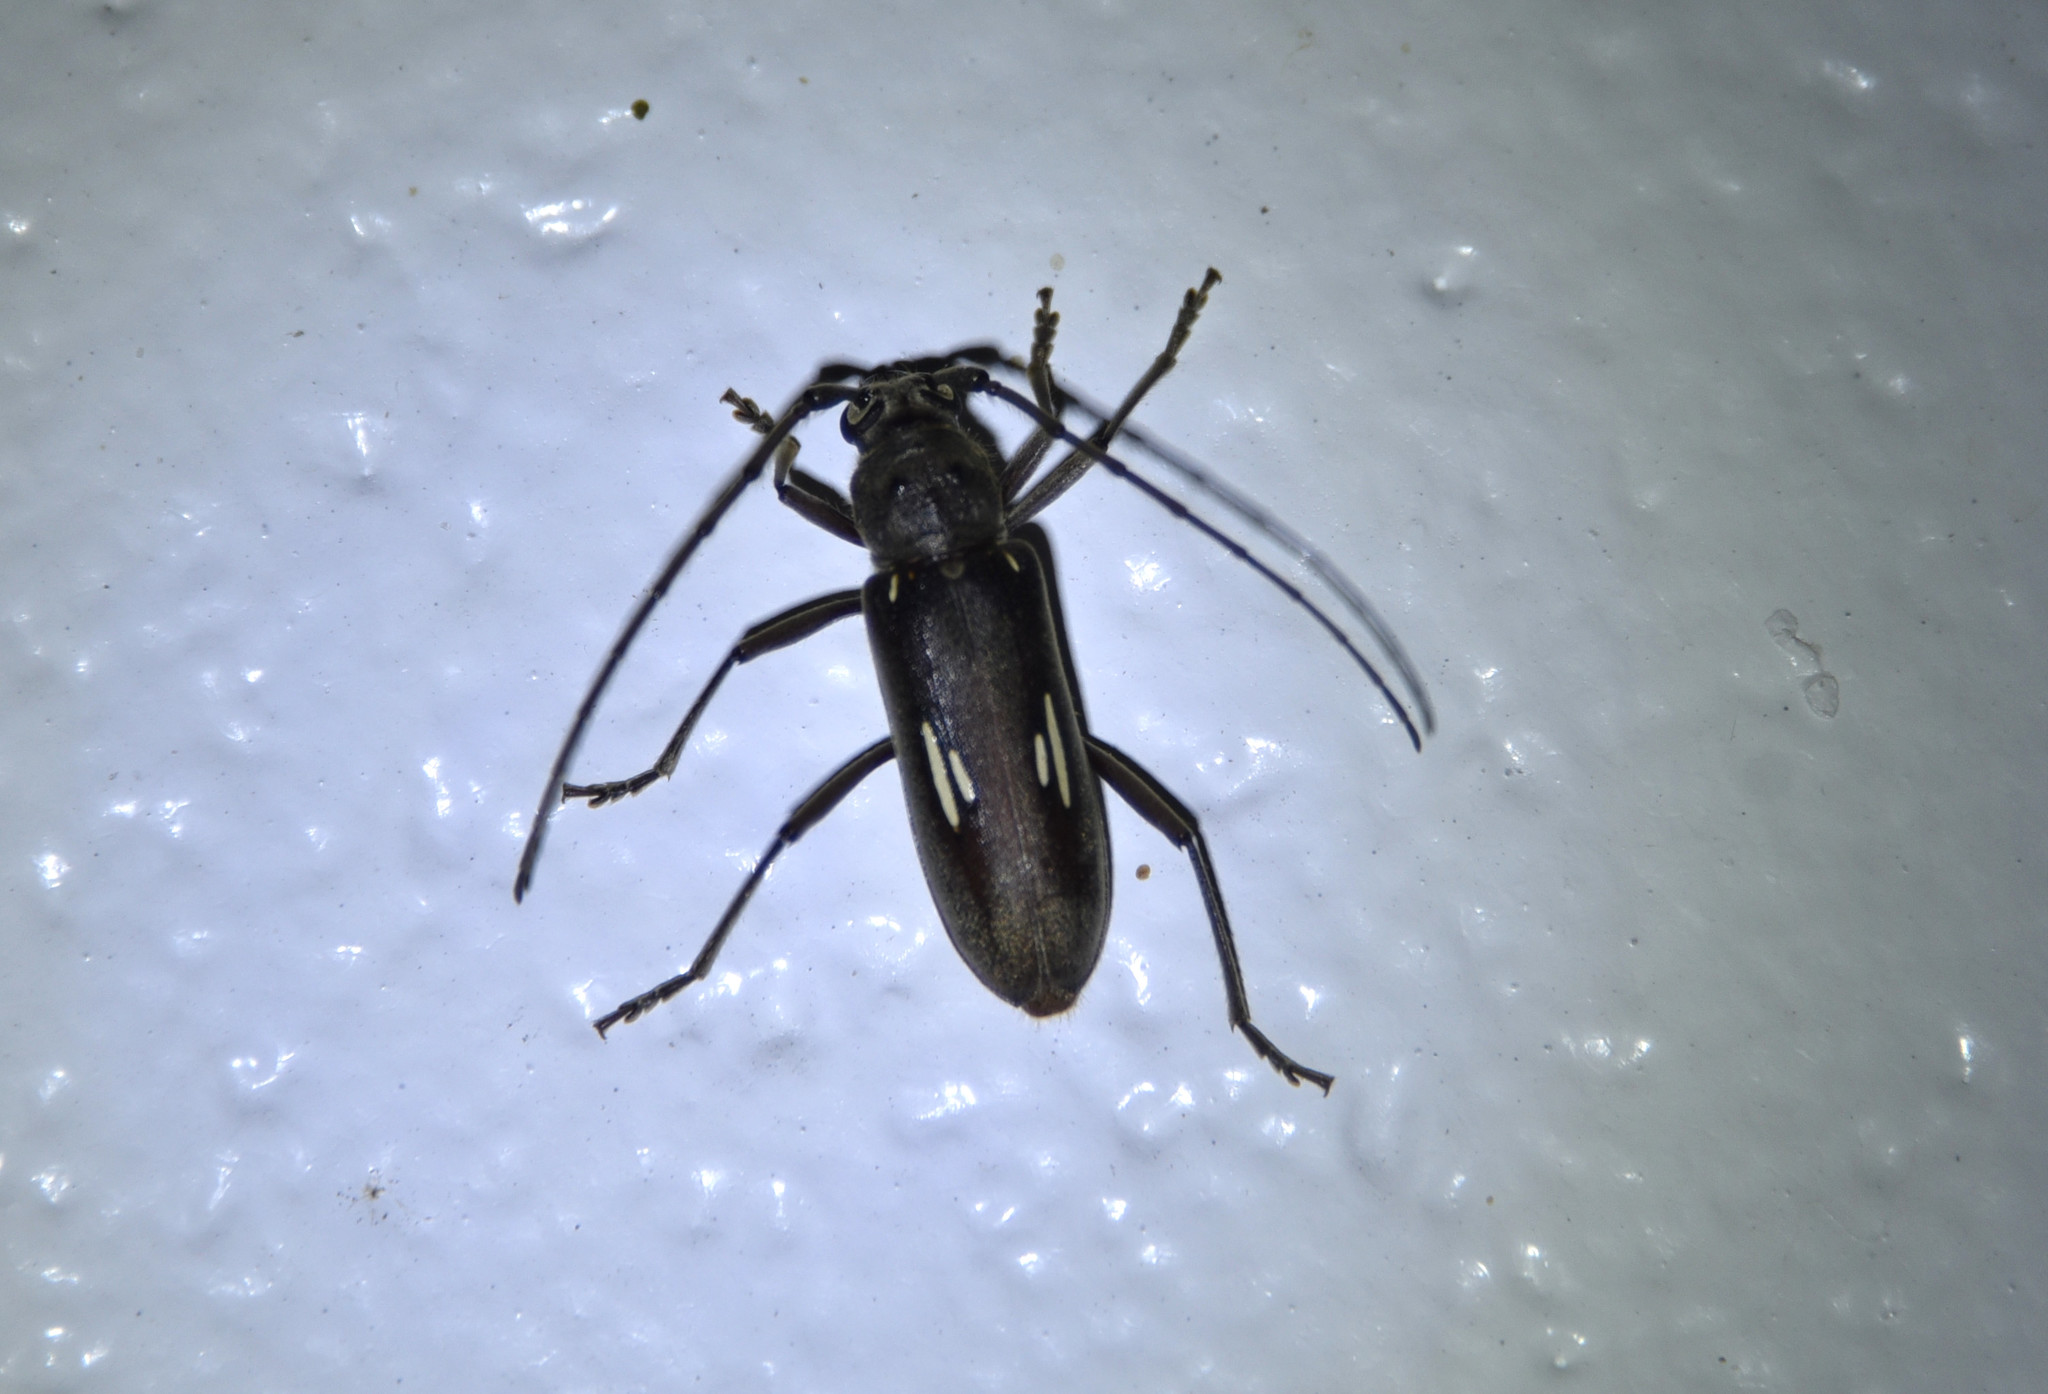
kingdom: Animalia
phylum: Arthropoda
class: Insecta
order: Coleoptera
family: Cerambycidae
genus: Eburia
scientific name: Eburia ovicollis
